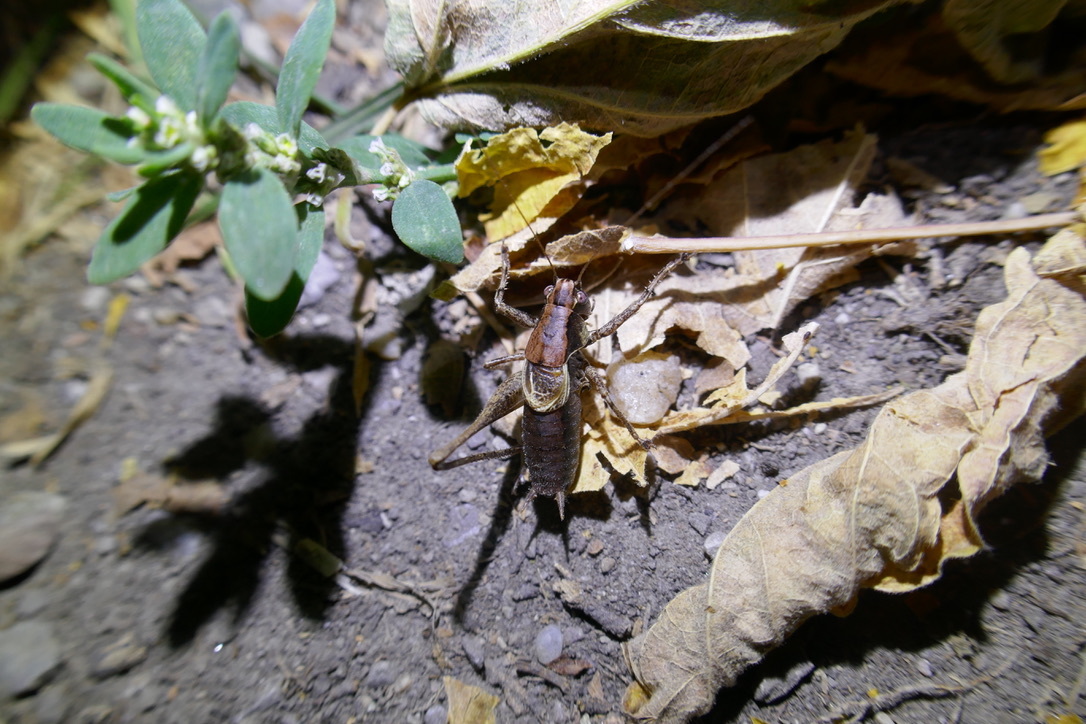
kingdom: Animalia
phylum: Arthropoda
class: Insecta
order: Orthoptera
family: Tettigoniidae
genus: Pholidoptera
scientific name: Pholidoptera griseoaptera
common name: Dark bush-cricket
